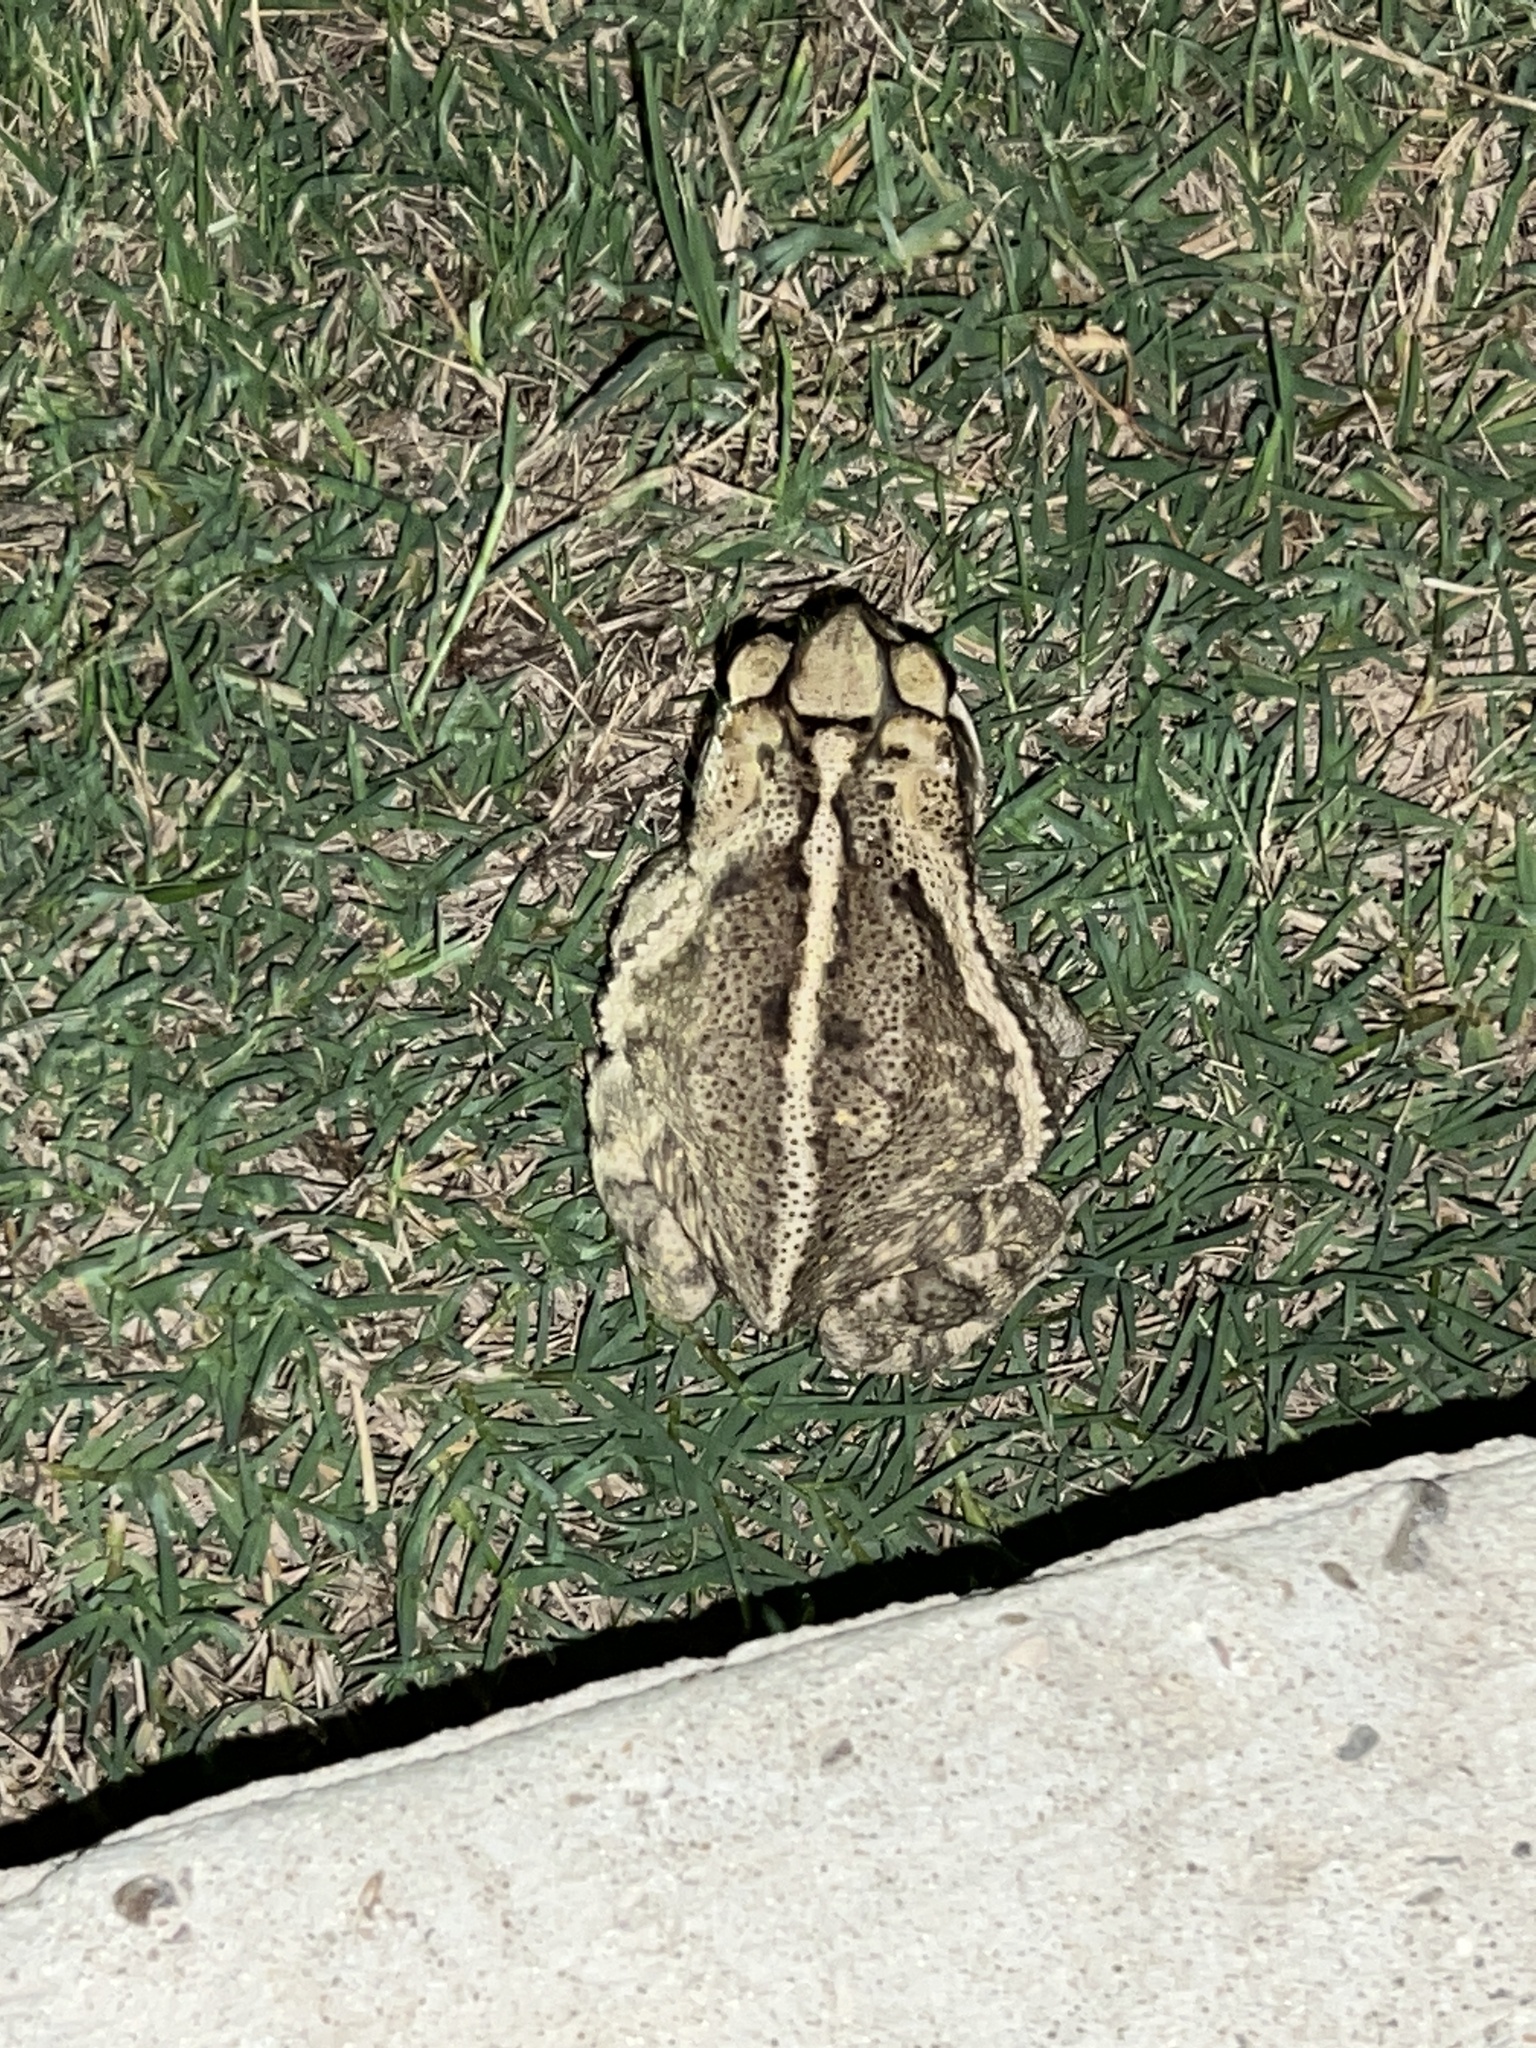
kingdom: Animalia
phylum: Chordata
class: Amphibia
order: Anura
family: Bufonidae
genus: Incilius
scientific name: Incilius nebulifer
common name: Gulf coast toad
